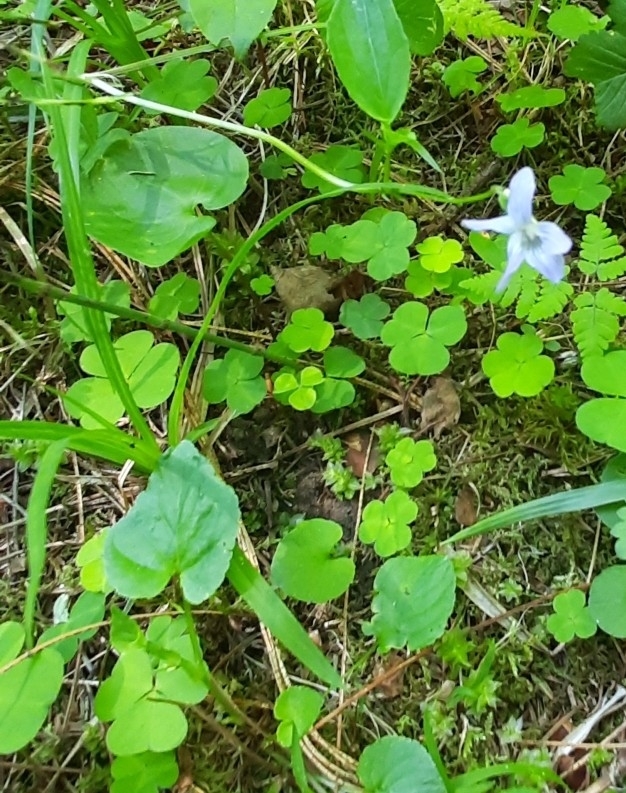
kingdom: Plantae
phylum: Tracheophyta
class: Magnoliopsida
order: Malpighiales
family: Violaceae
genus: Viola
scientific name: Viola selkirkii
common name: Selkirk's violet
